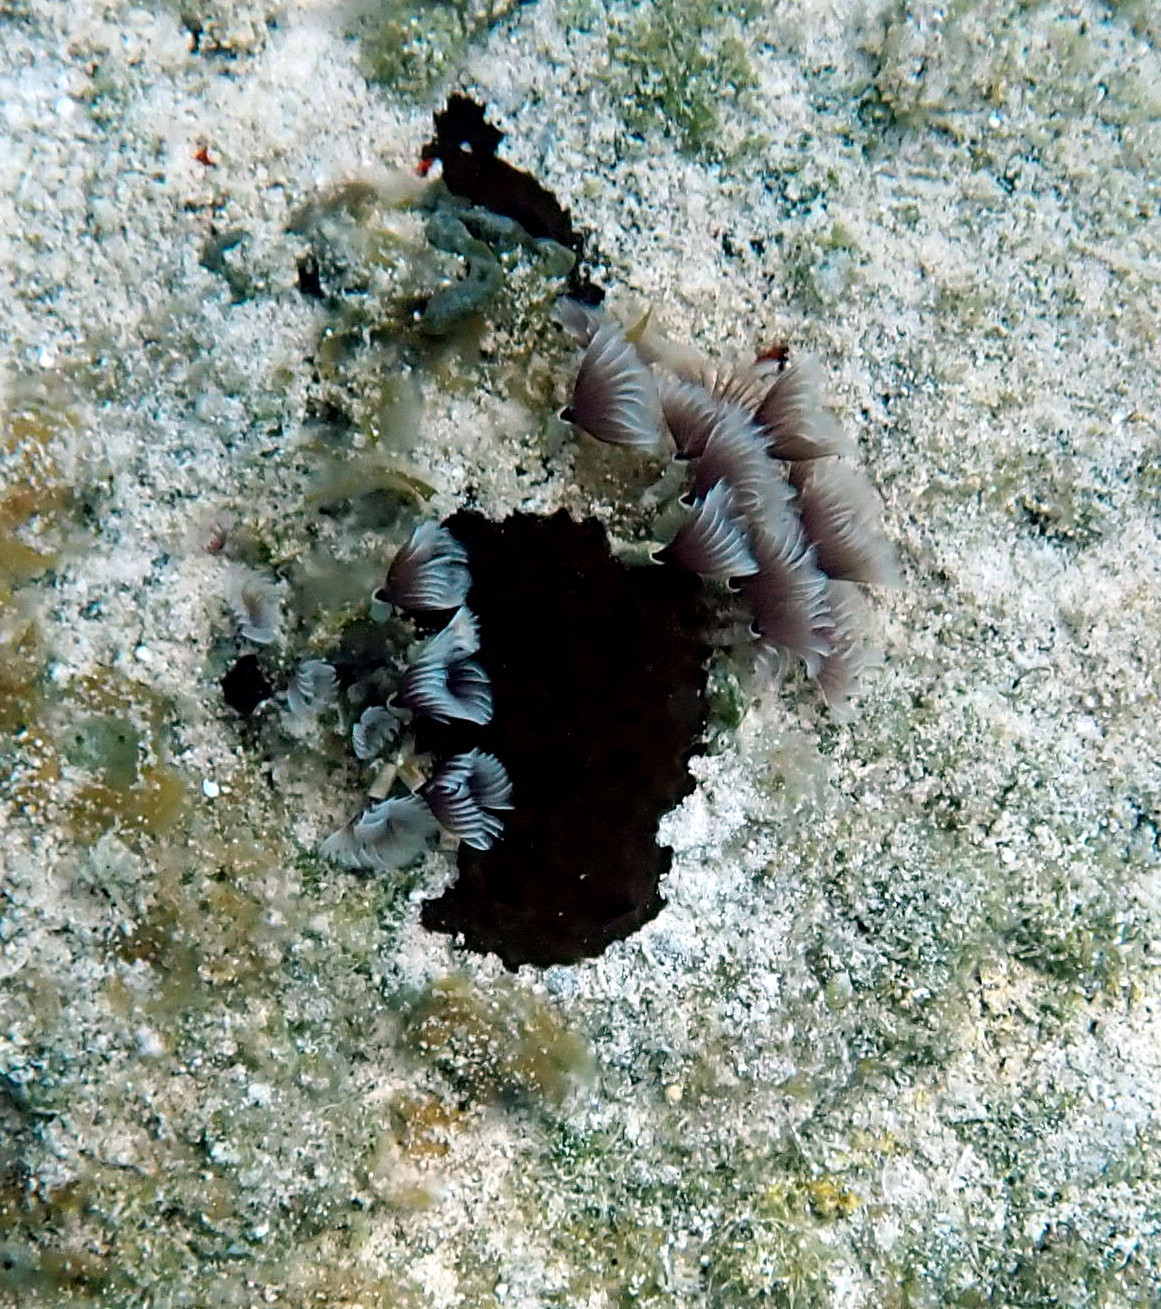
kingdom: Animalia
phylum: Annelida
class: Polychaeta
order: Sabellida
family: Sabellidae
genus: Bispira
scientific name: Bispira brunnea
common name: Social feather duster
